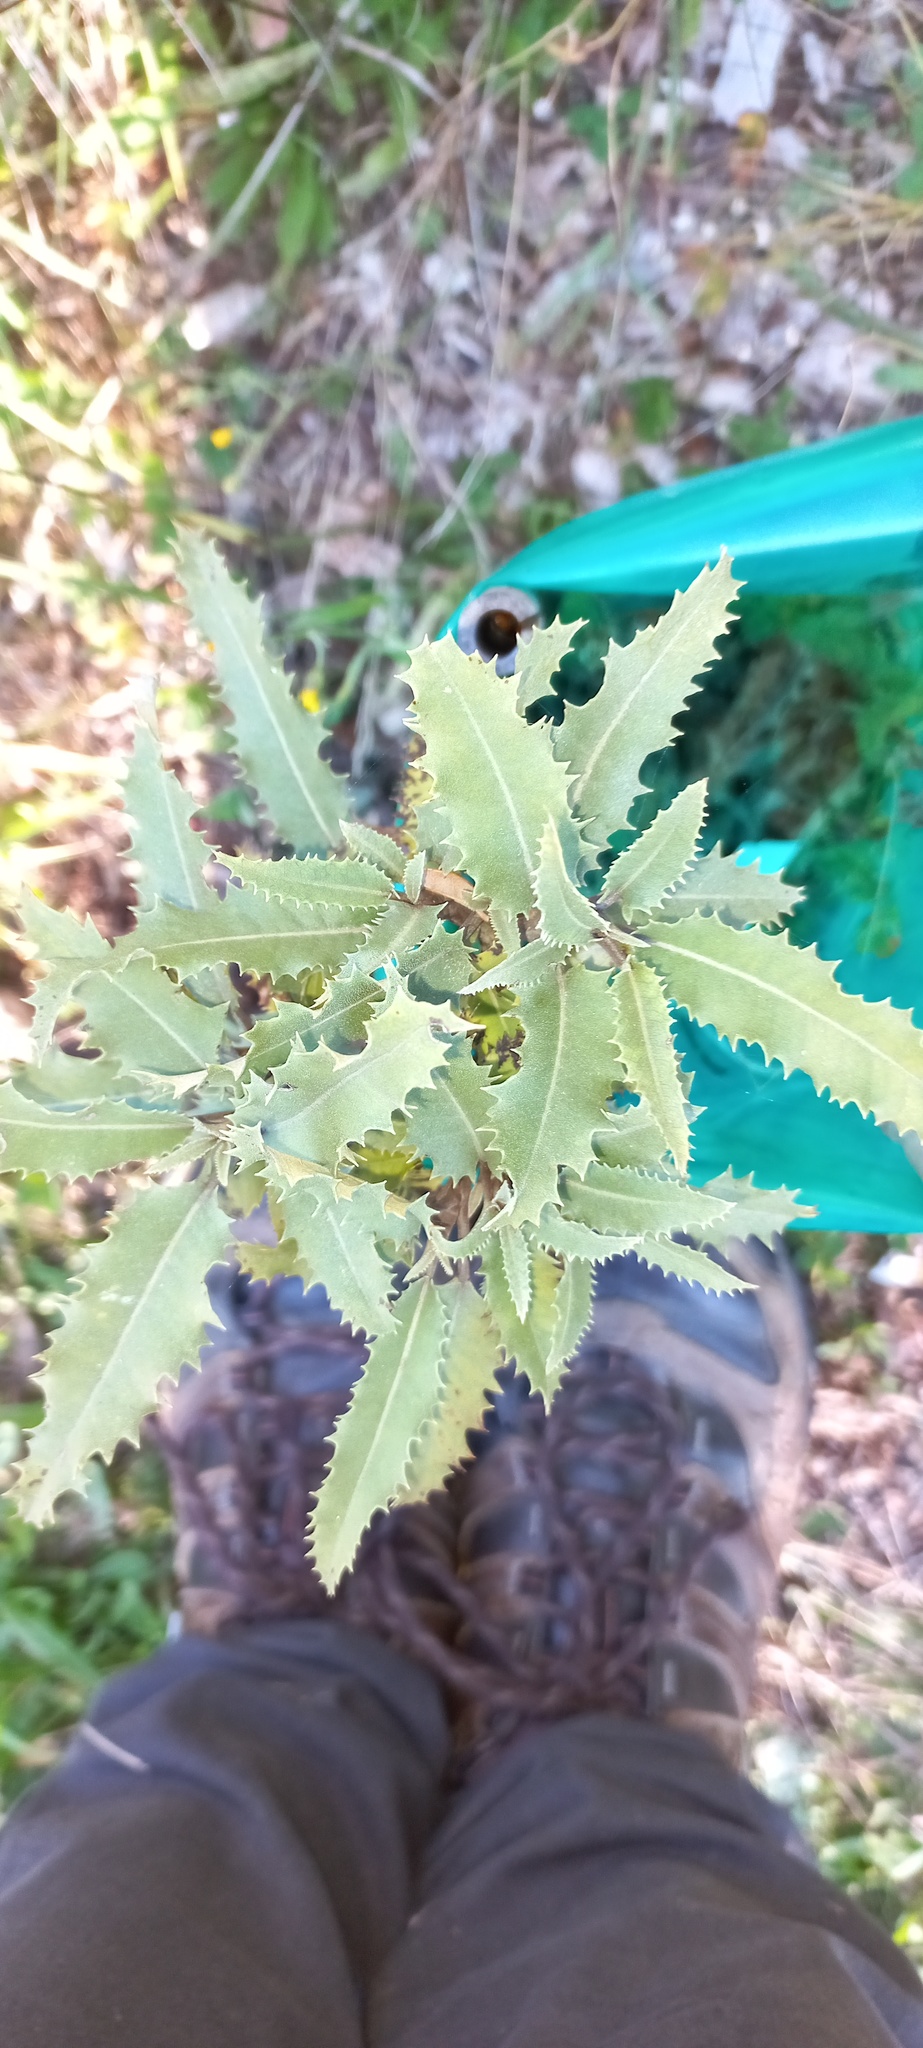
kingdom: Plantae
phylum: Tracheophyta
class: Magnoliopsida
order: Asterales
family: Asteraceae
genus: Olearia
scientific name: Olearia ilicifolia
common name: Maori-holly
